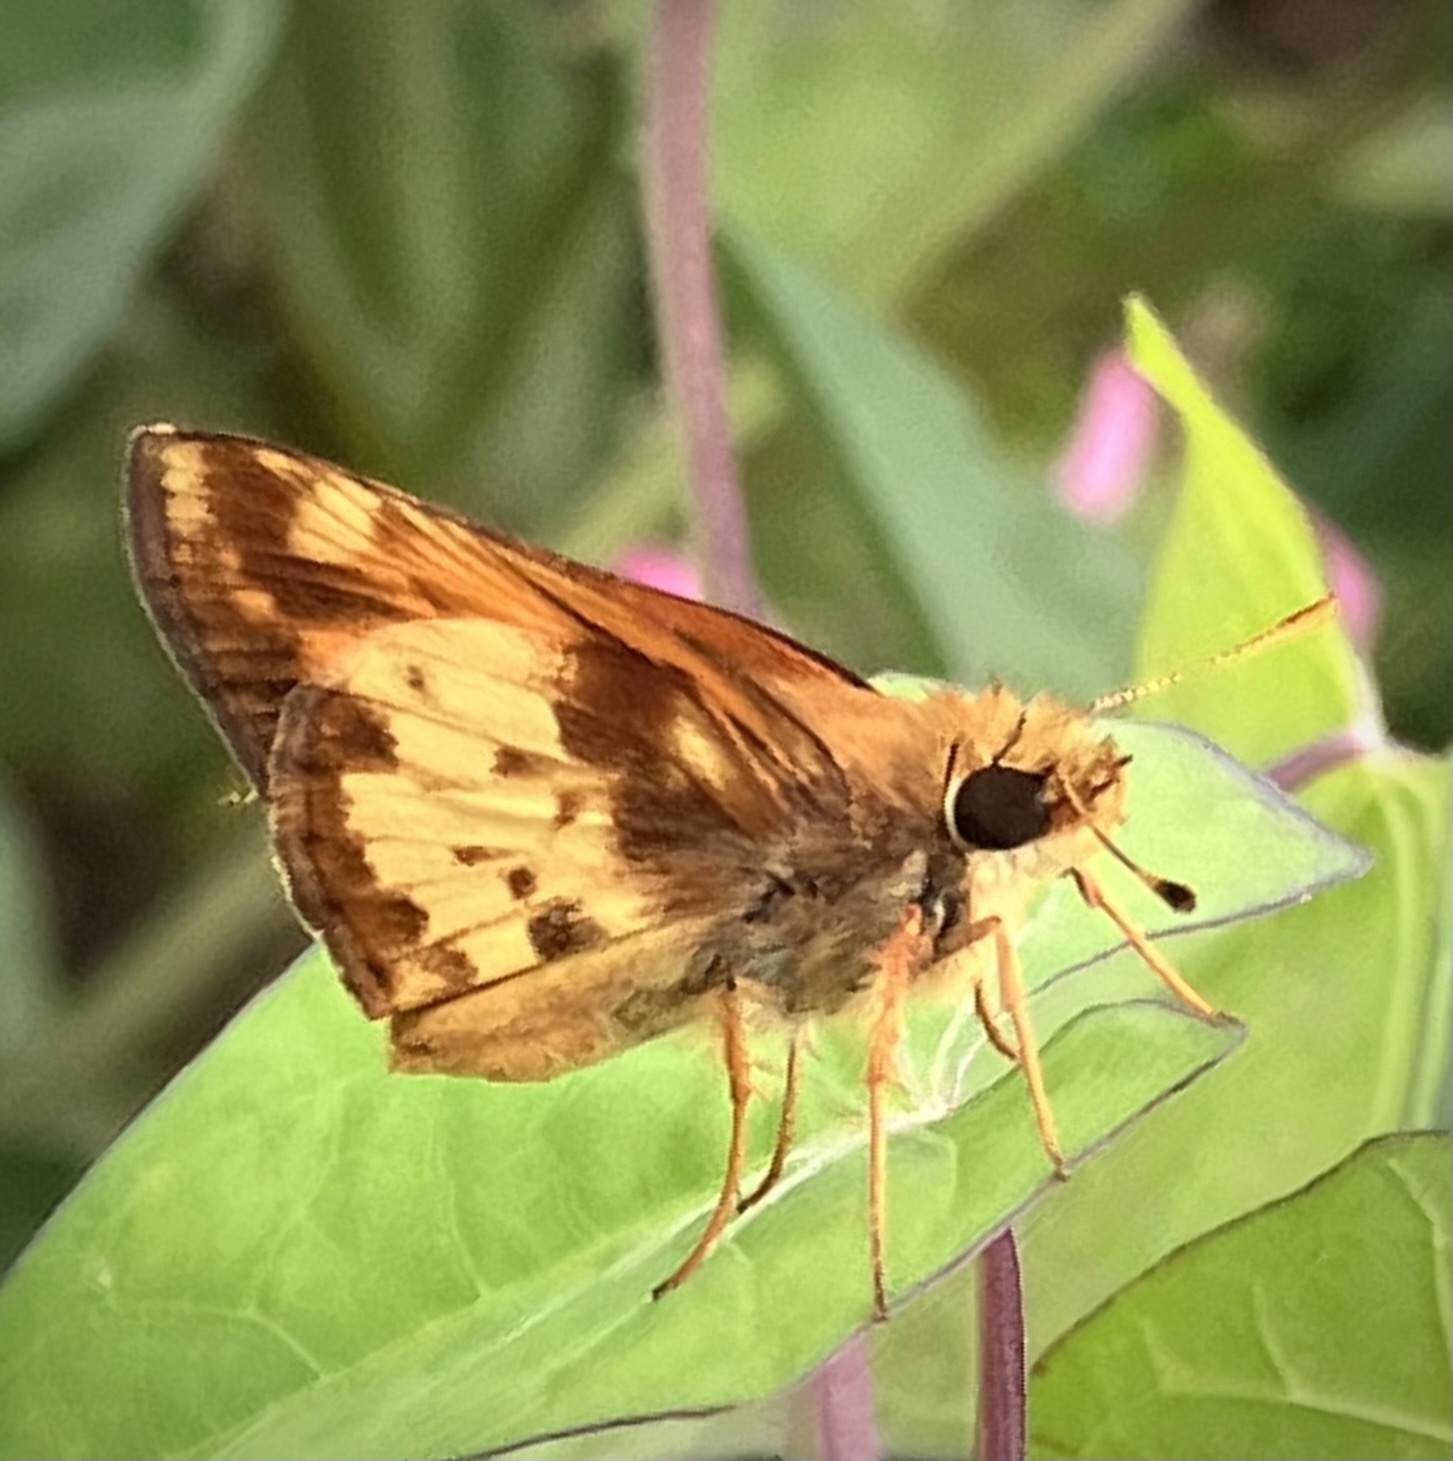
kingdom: Animalia
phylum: Arthropoda
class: Insecta
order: Lepidoptera
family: Hesperiidae
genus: Lon
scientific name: Lon zabulon
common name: Zabulon skipper
